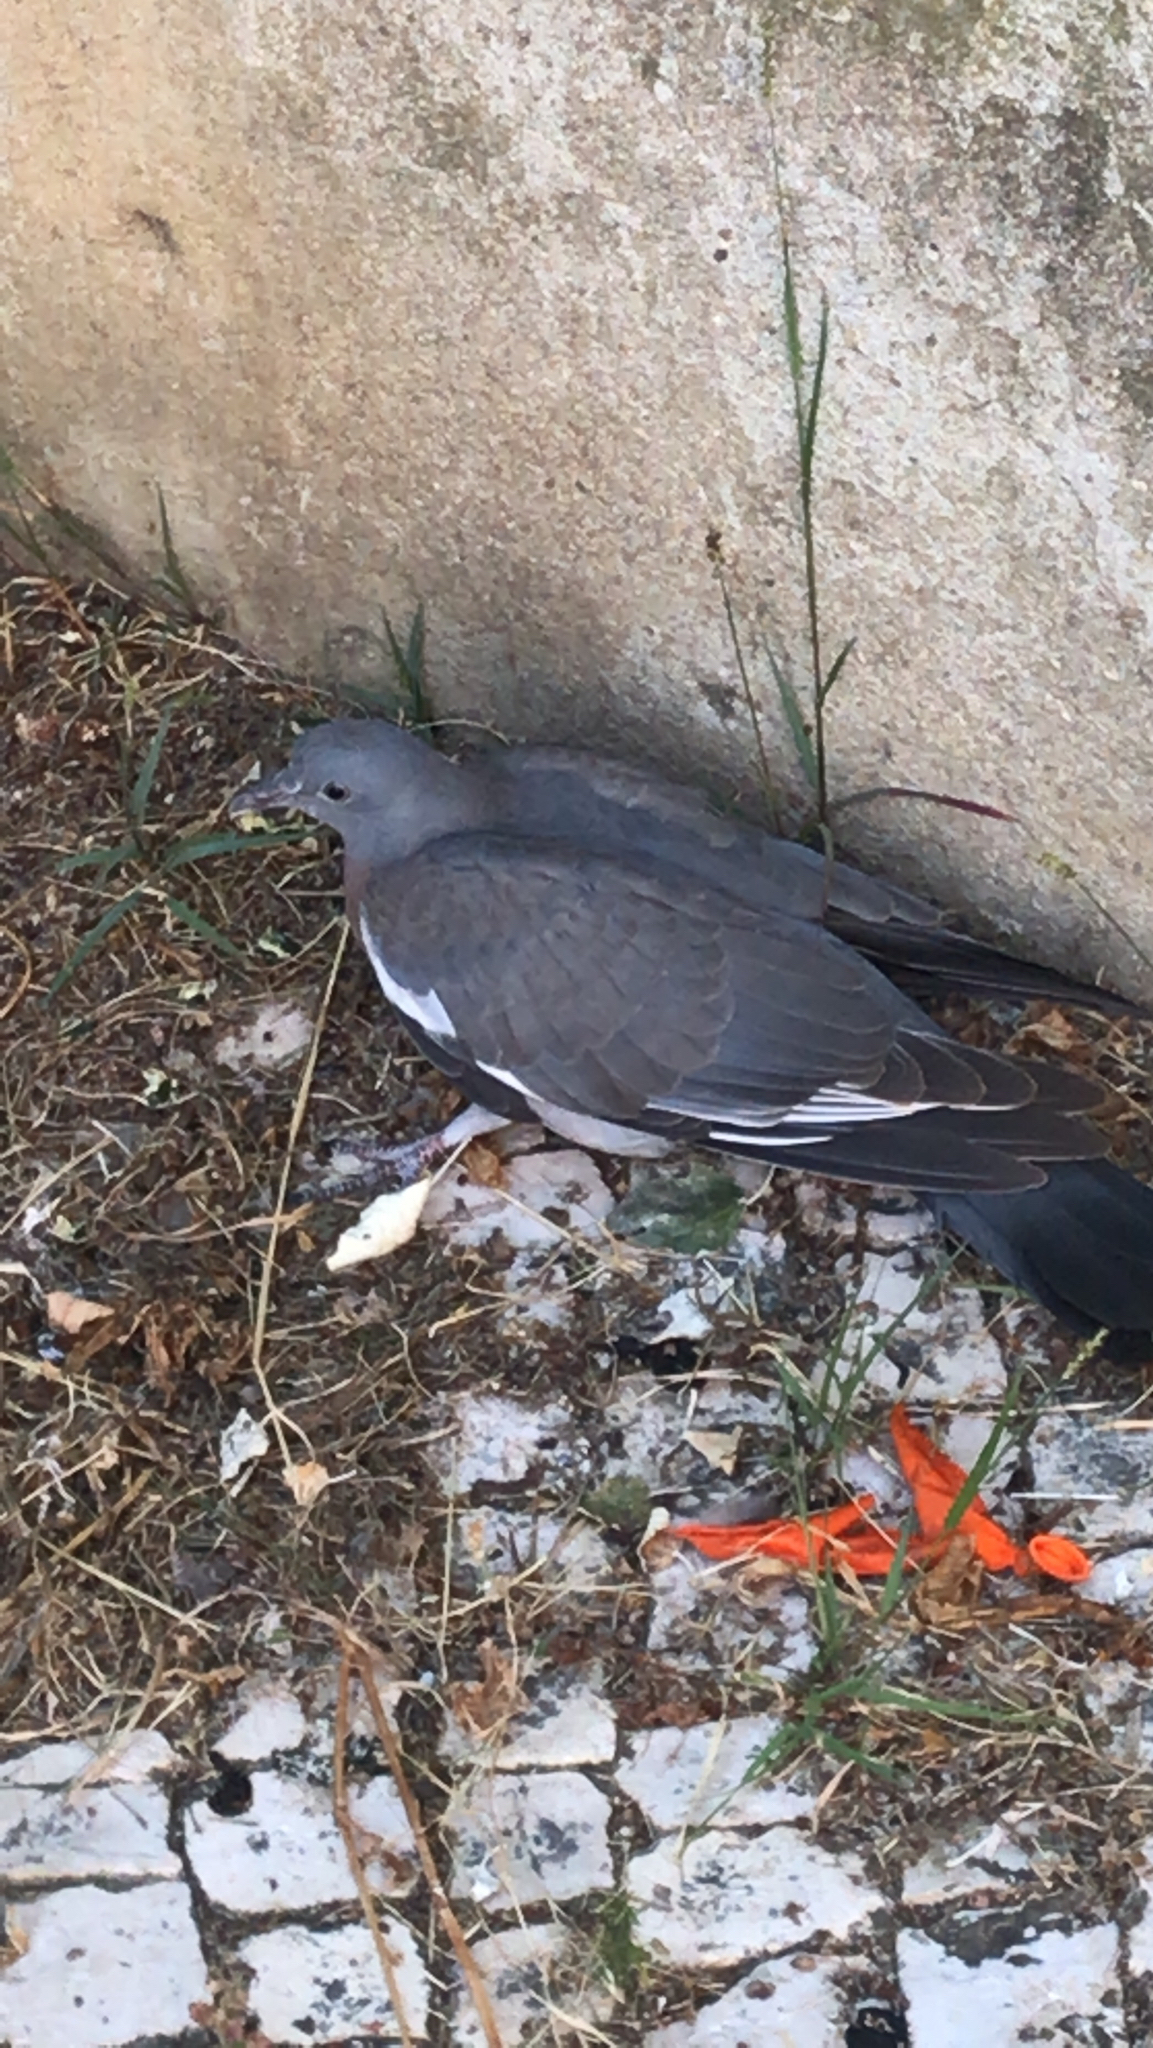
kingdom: Animalia
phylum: Chordata
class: Aves
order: Columbiformes
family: Columbidae
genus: Columba
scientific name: Columba palumbus
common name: Common wood pigeon
